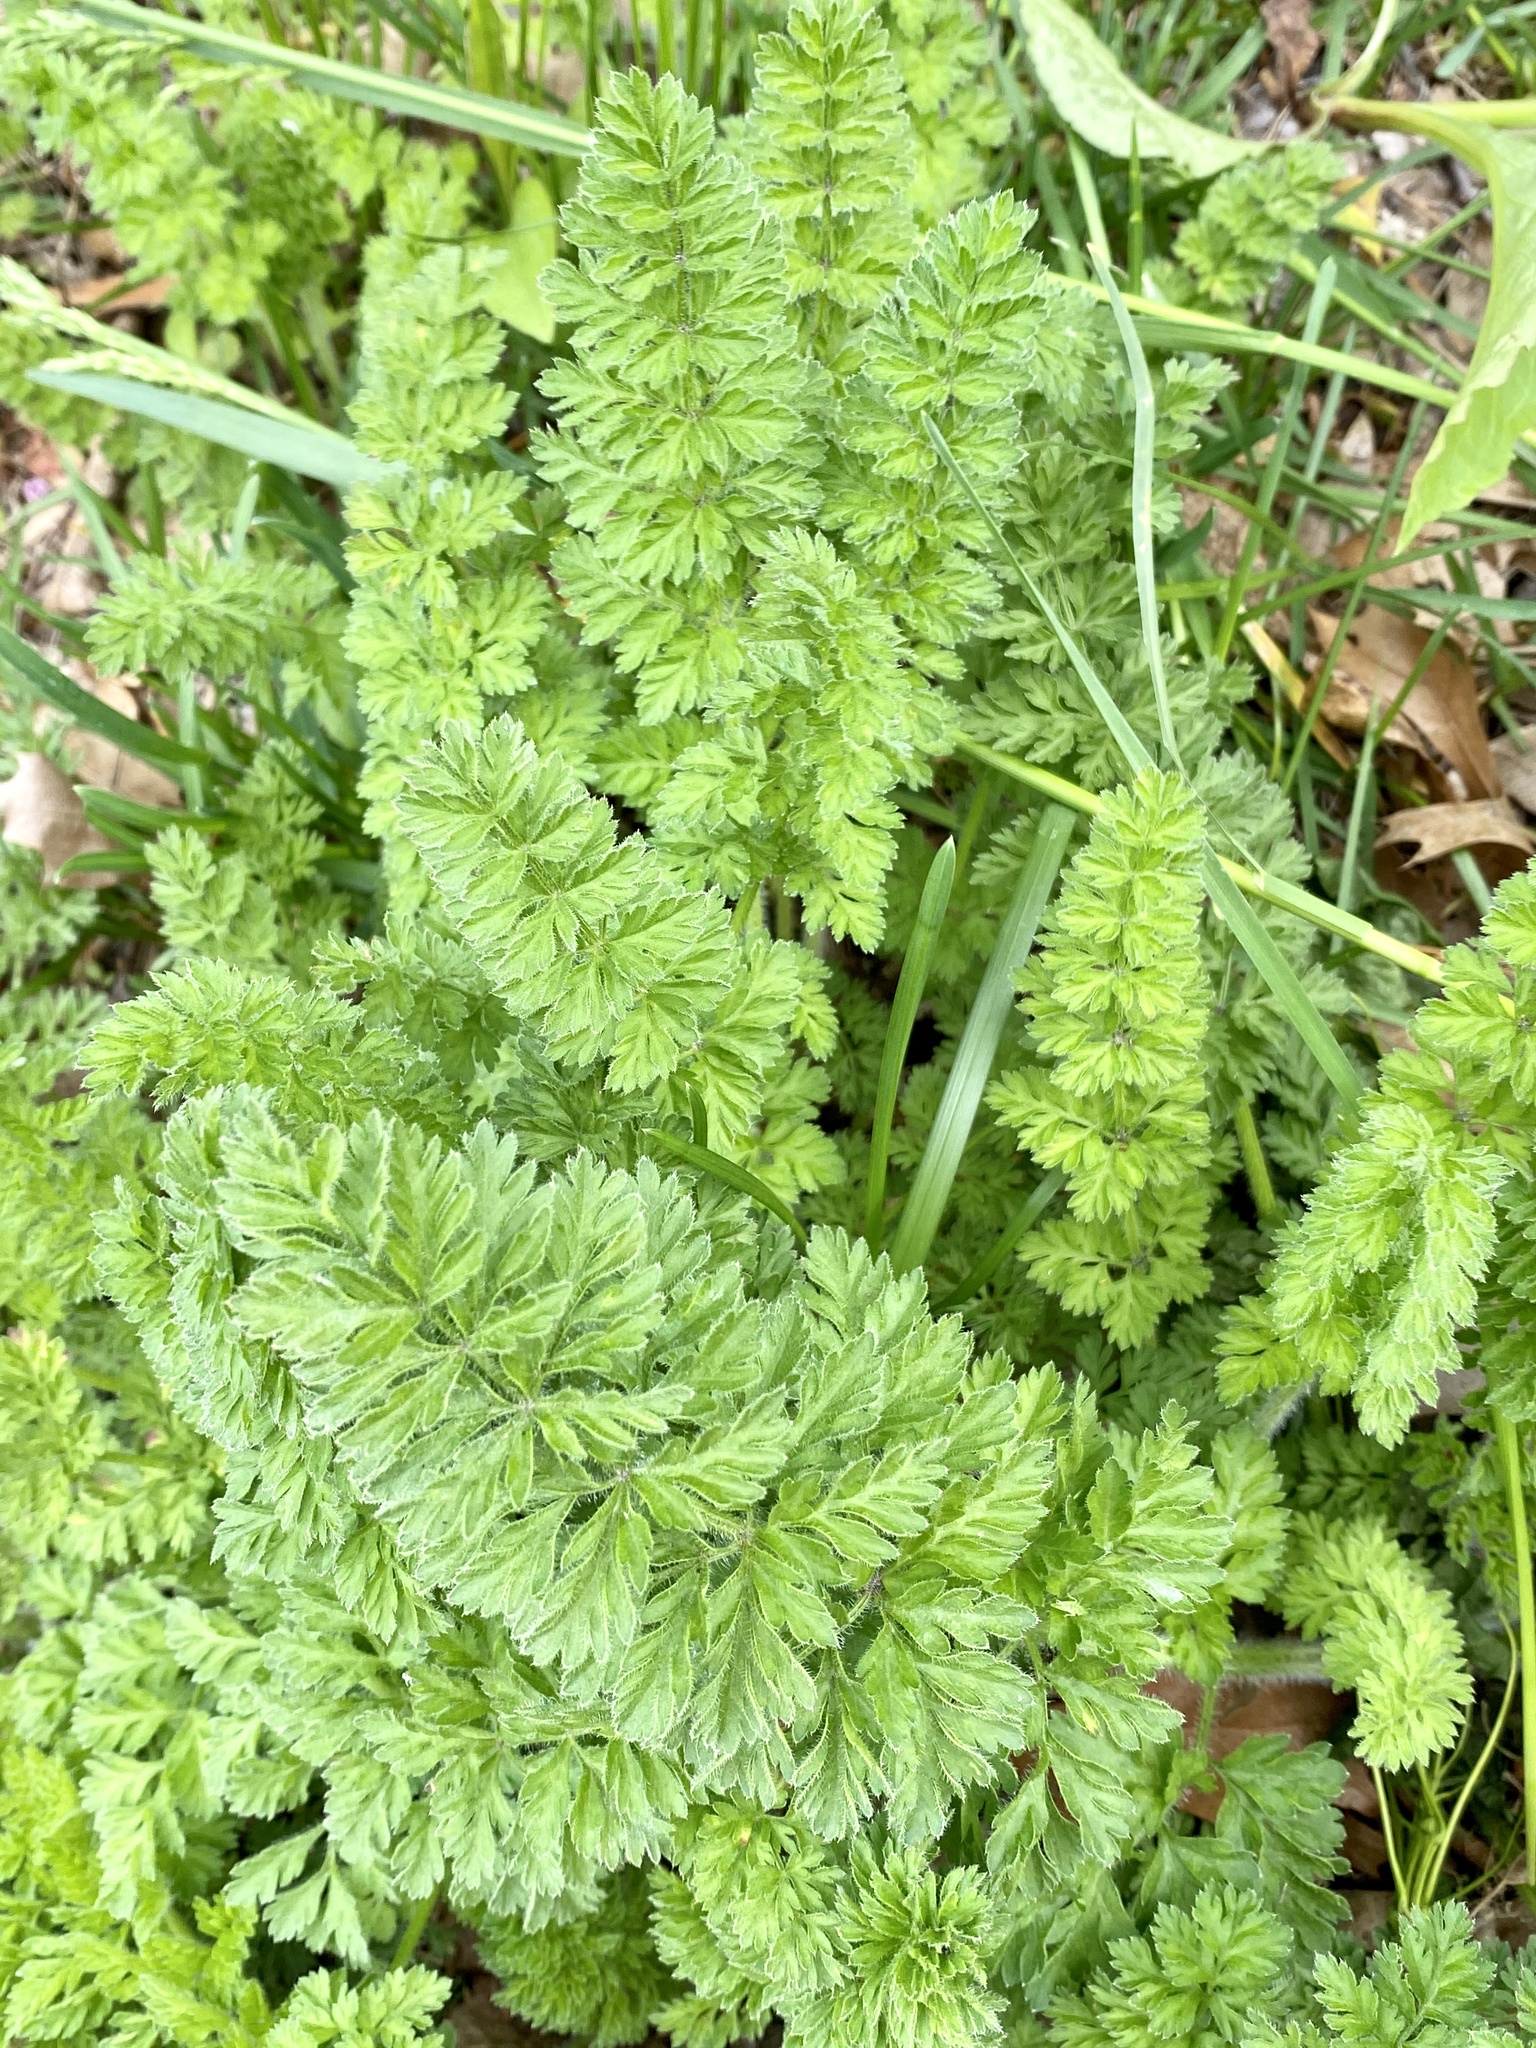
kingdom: Plantae
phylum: Tracheophyta
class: Magnoliopsida
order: Apiales
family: Apiaceae
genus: Daucus
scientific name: Daucus carota
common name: Wild carrot
